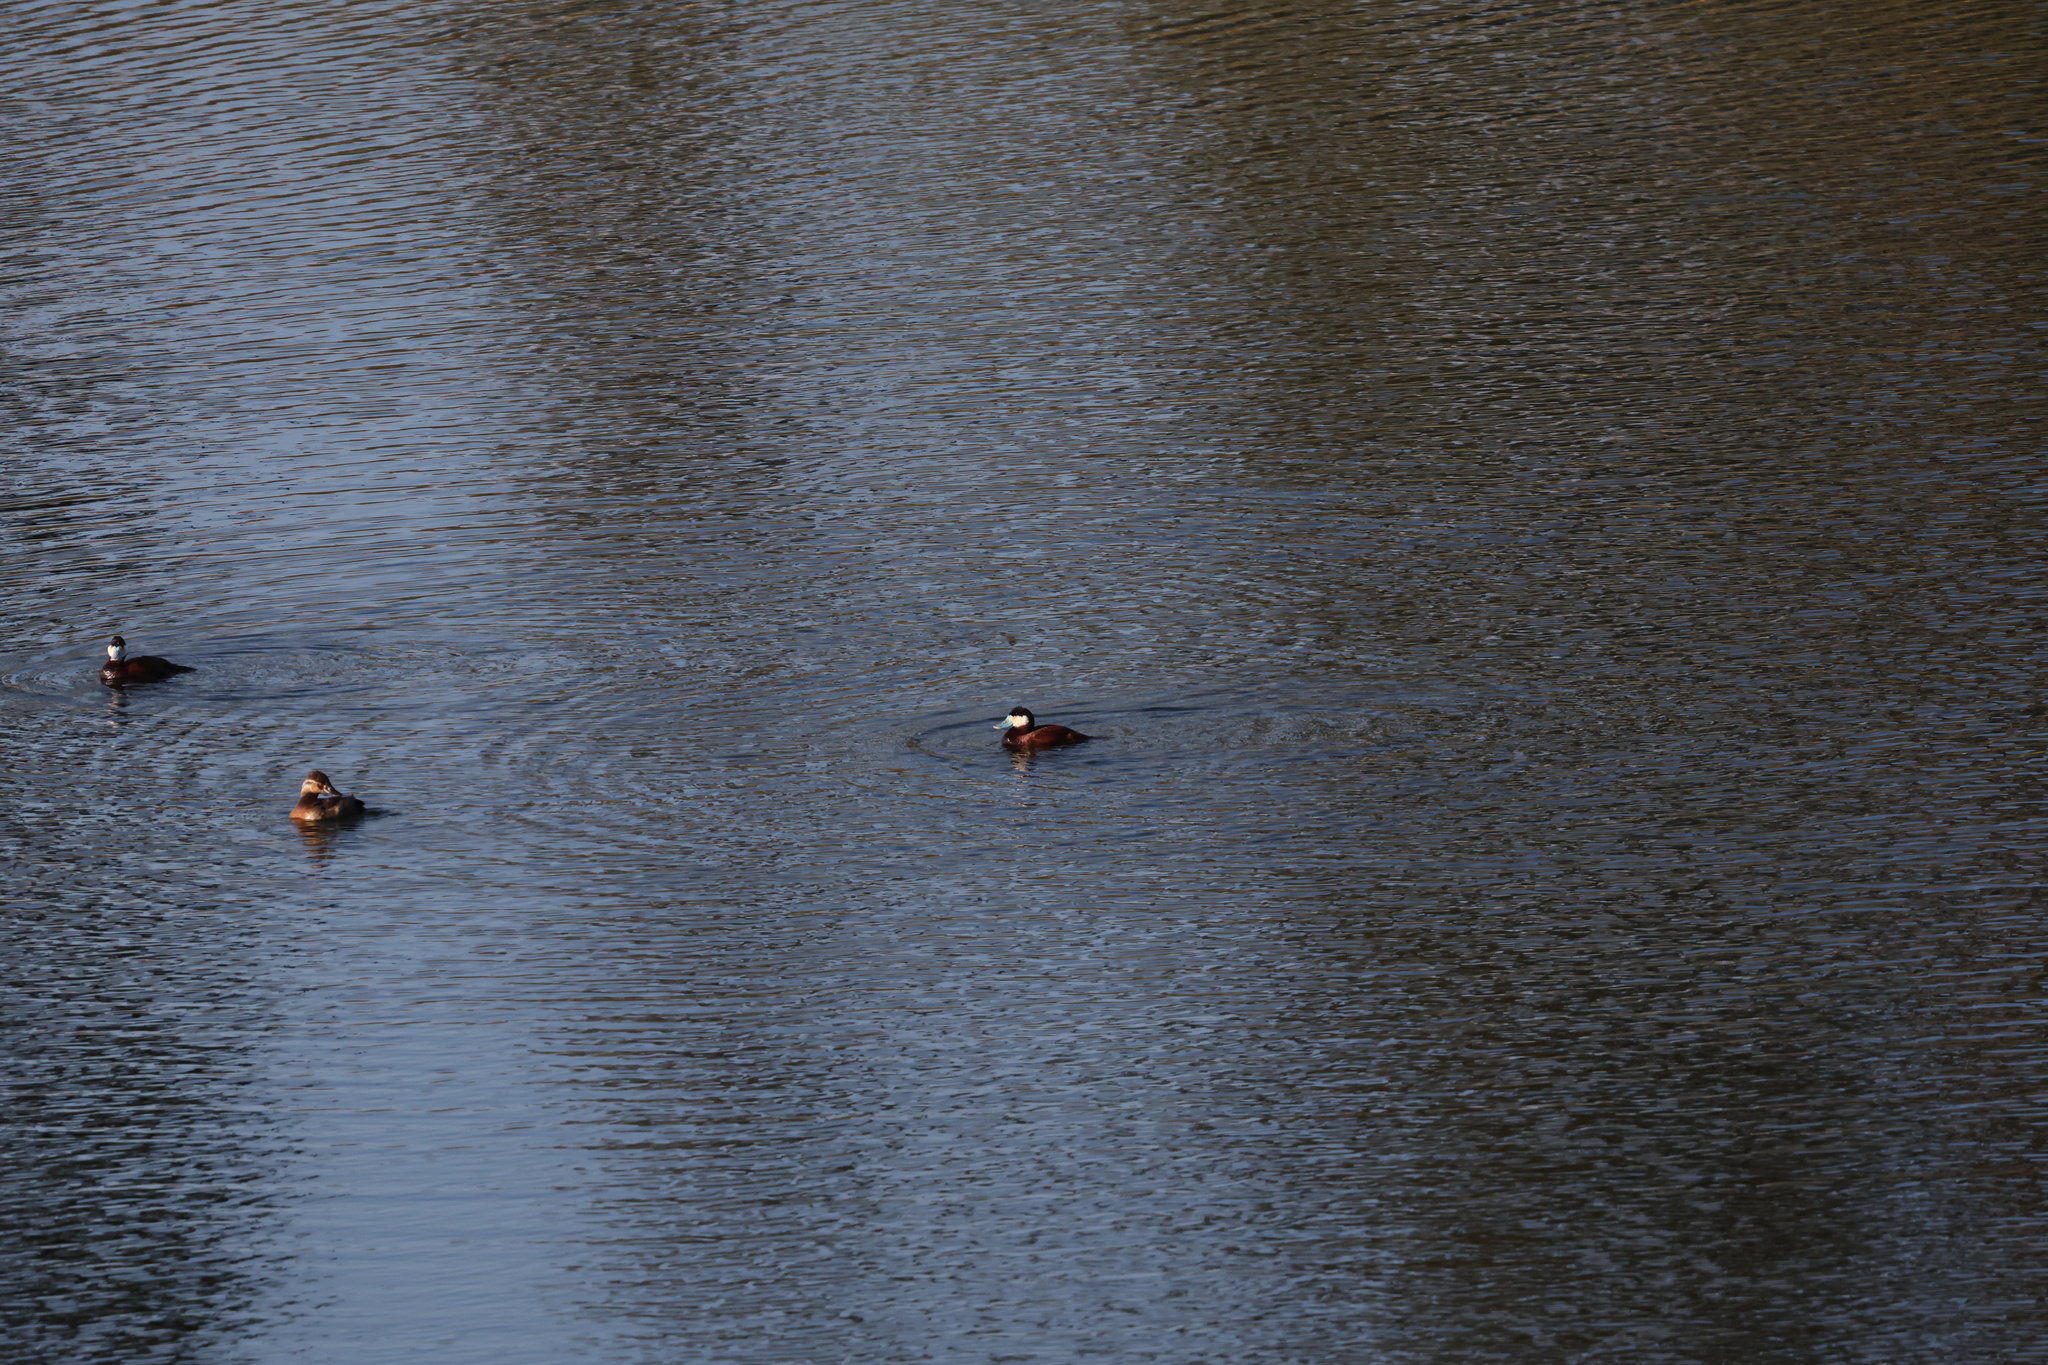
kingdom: Animalia
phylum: Chordata
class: Aves
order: Anseriformes
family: Anatidae
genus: Oxyura
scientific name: Oxyura jamaicensis
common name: Ruddy duck
